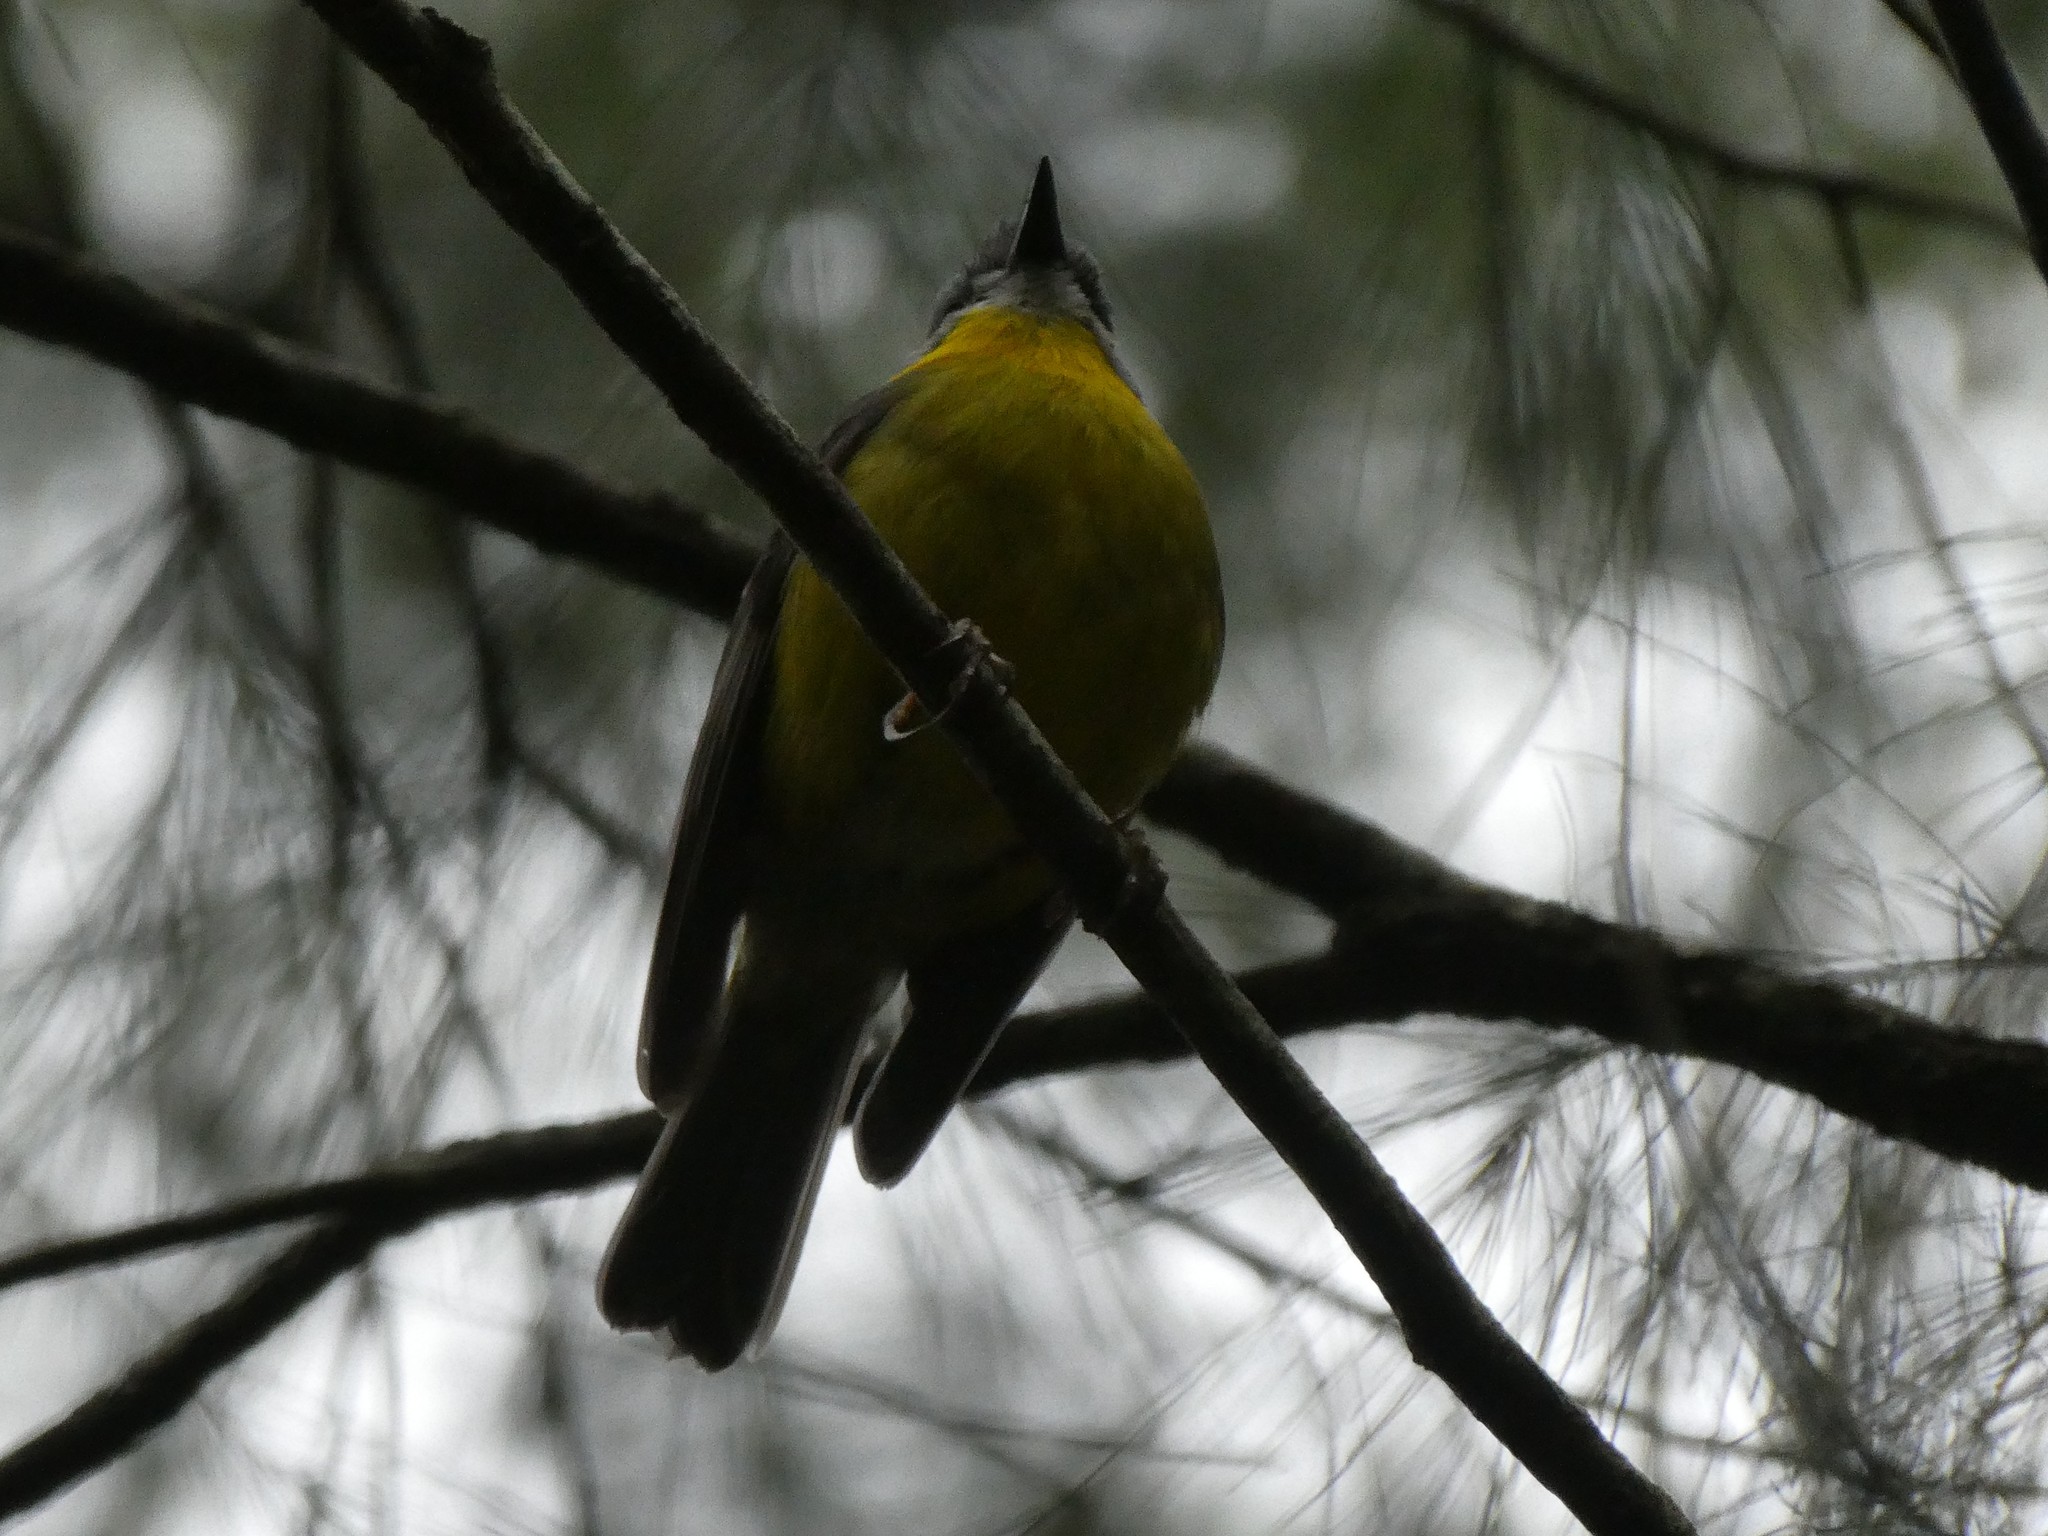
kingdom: Animalia
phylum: Chordata
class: Aves
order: Passeriformes
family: Petroicidae
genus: Eopsaltria
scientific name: Eopsaltria australis
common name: Eastern yellow robin
